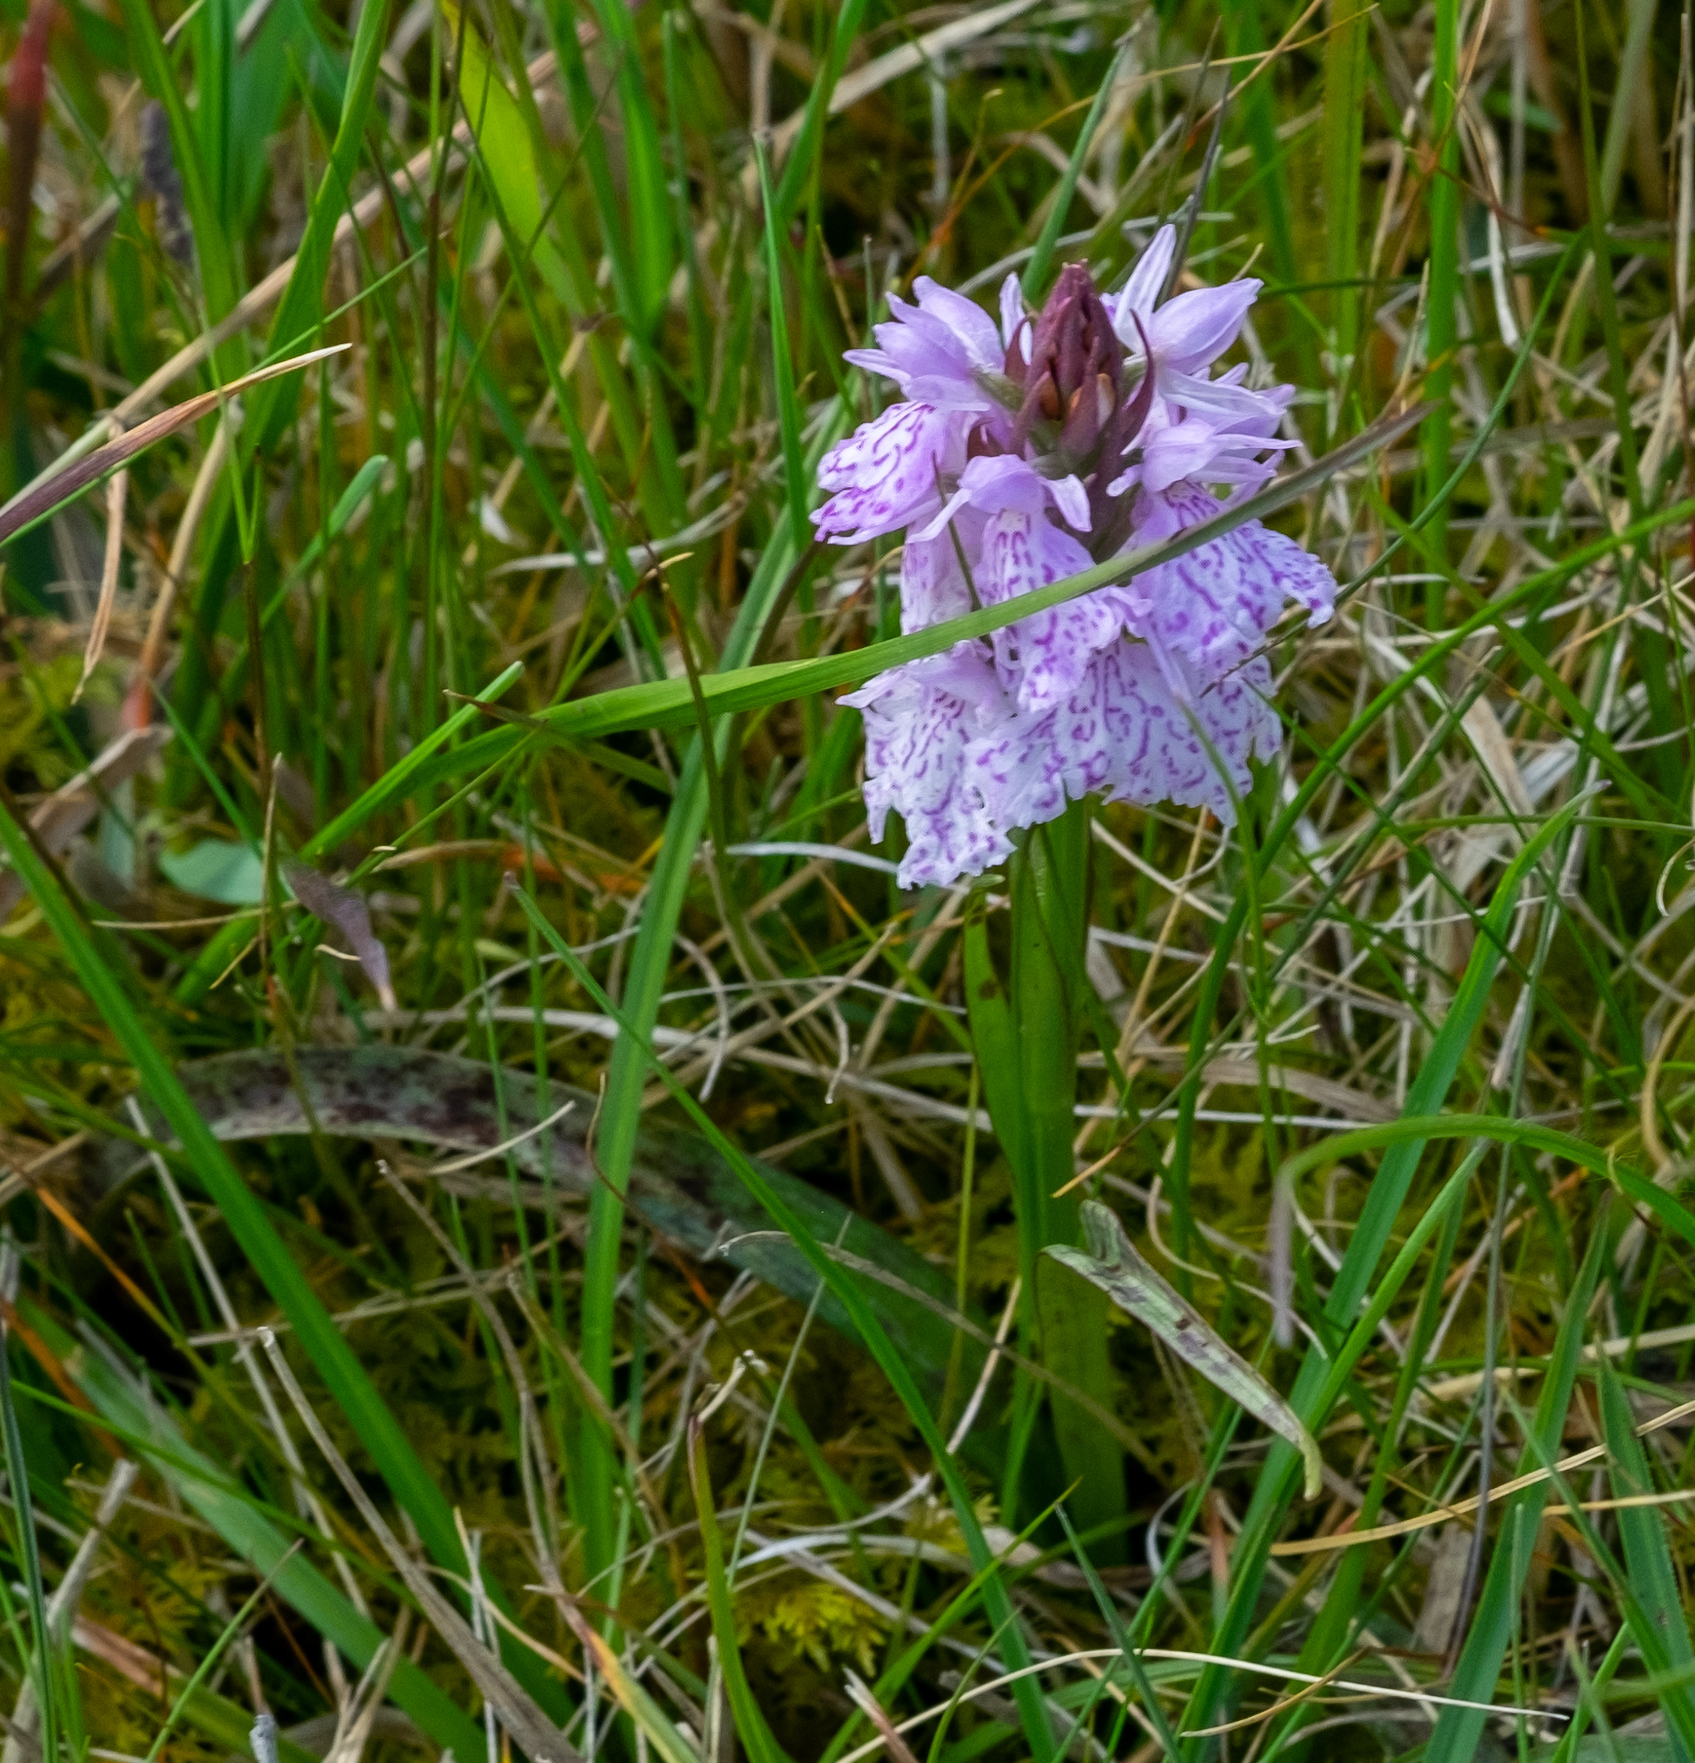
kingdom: Plantae
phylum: Tracheophyta
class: Liliopsida
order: Asparagales
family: Orchidaceae
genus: Dactylorhiza
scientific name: Dactylorhiza maculata
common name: Heath spotted-orchid
